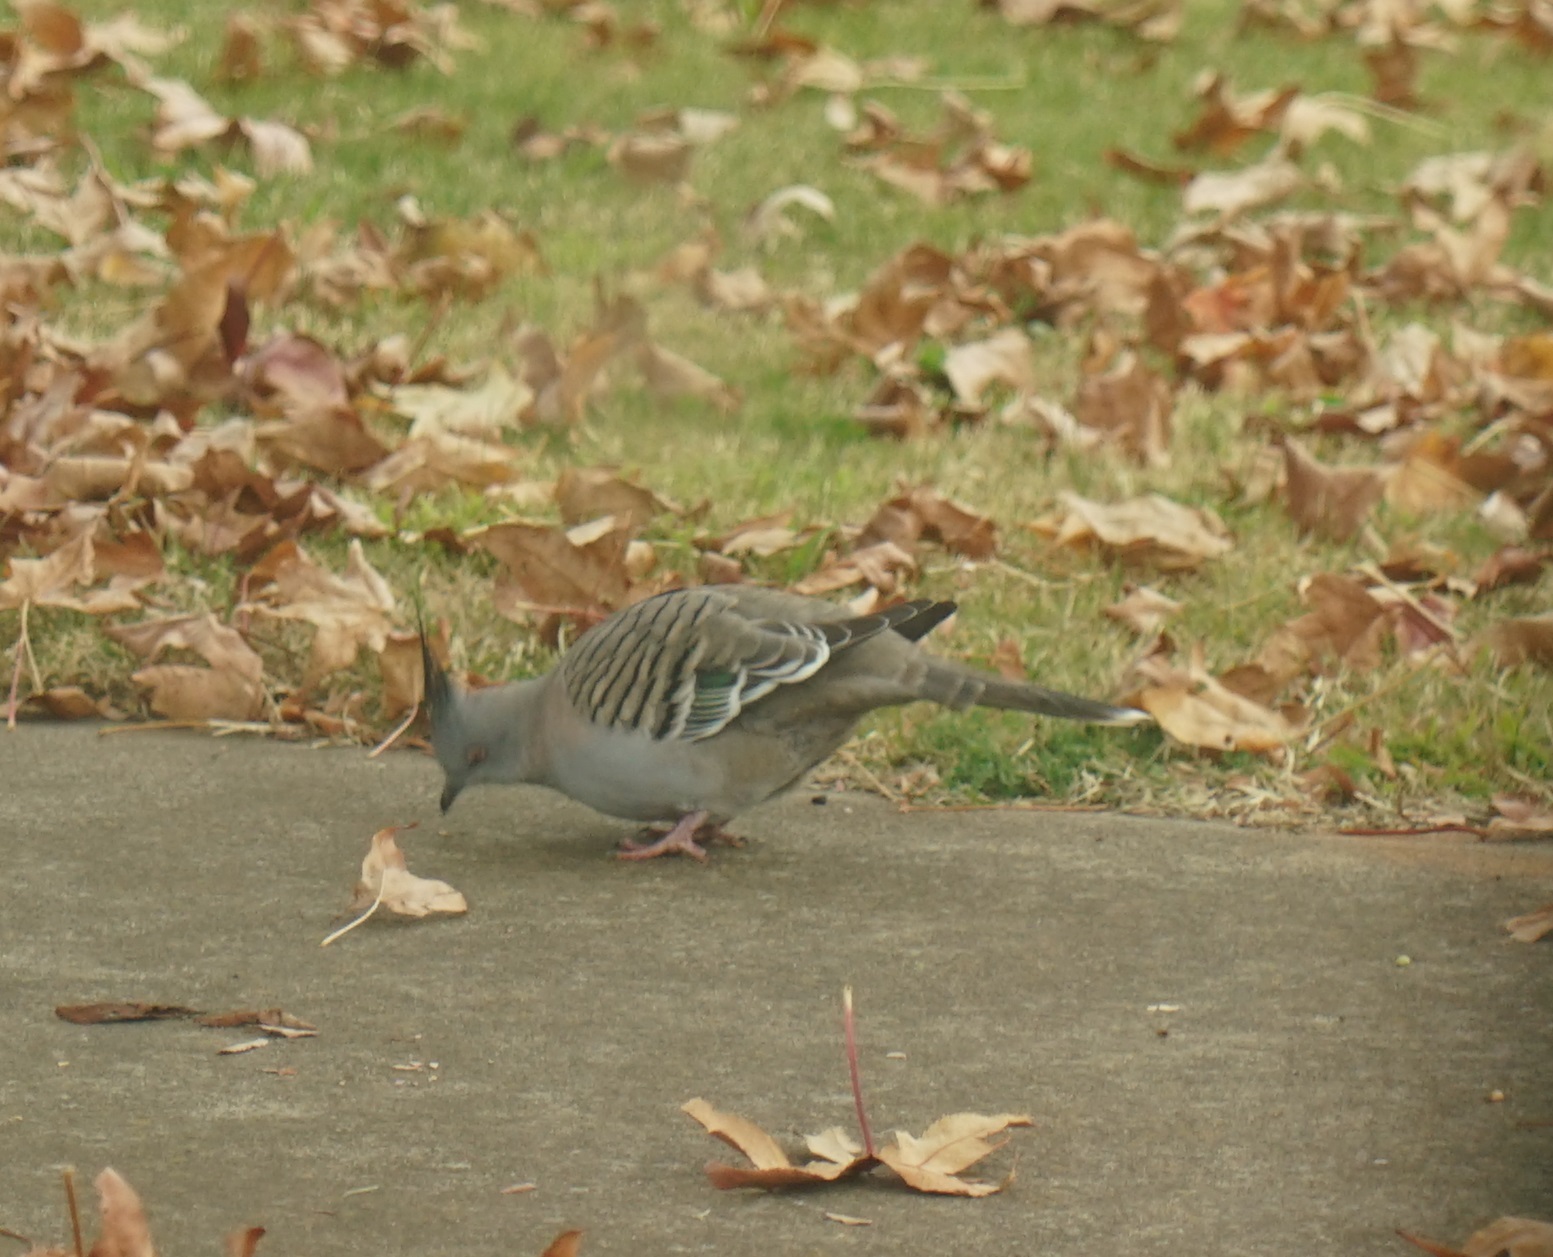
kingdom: Animalia
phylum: Chordata
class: Aves
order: Columbiformes
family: Columbidae
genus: Ocyphaps
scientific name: Ocyphaps lophotes
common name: Crested pigeon
